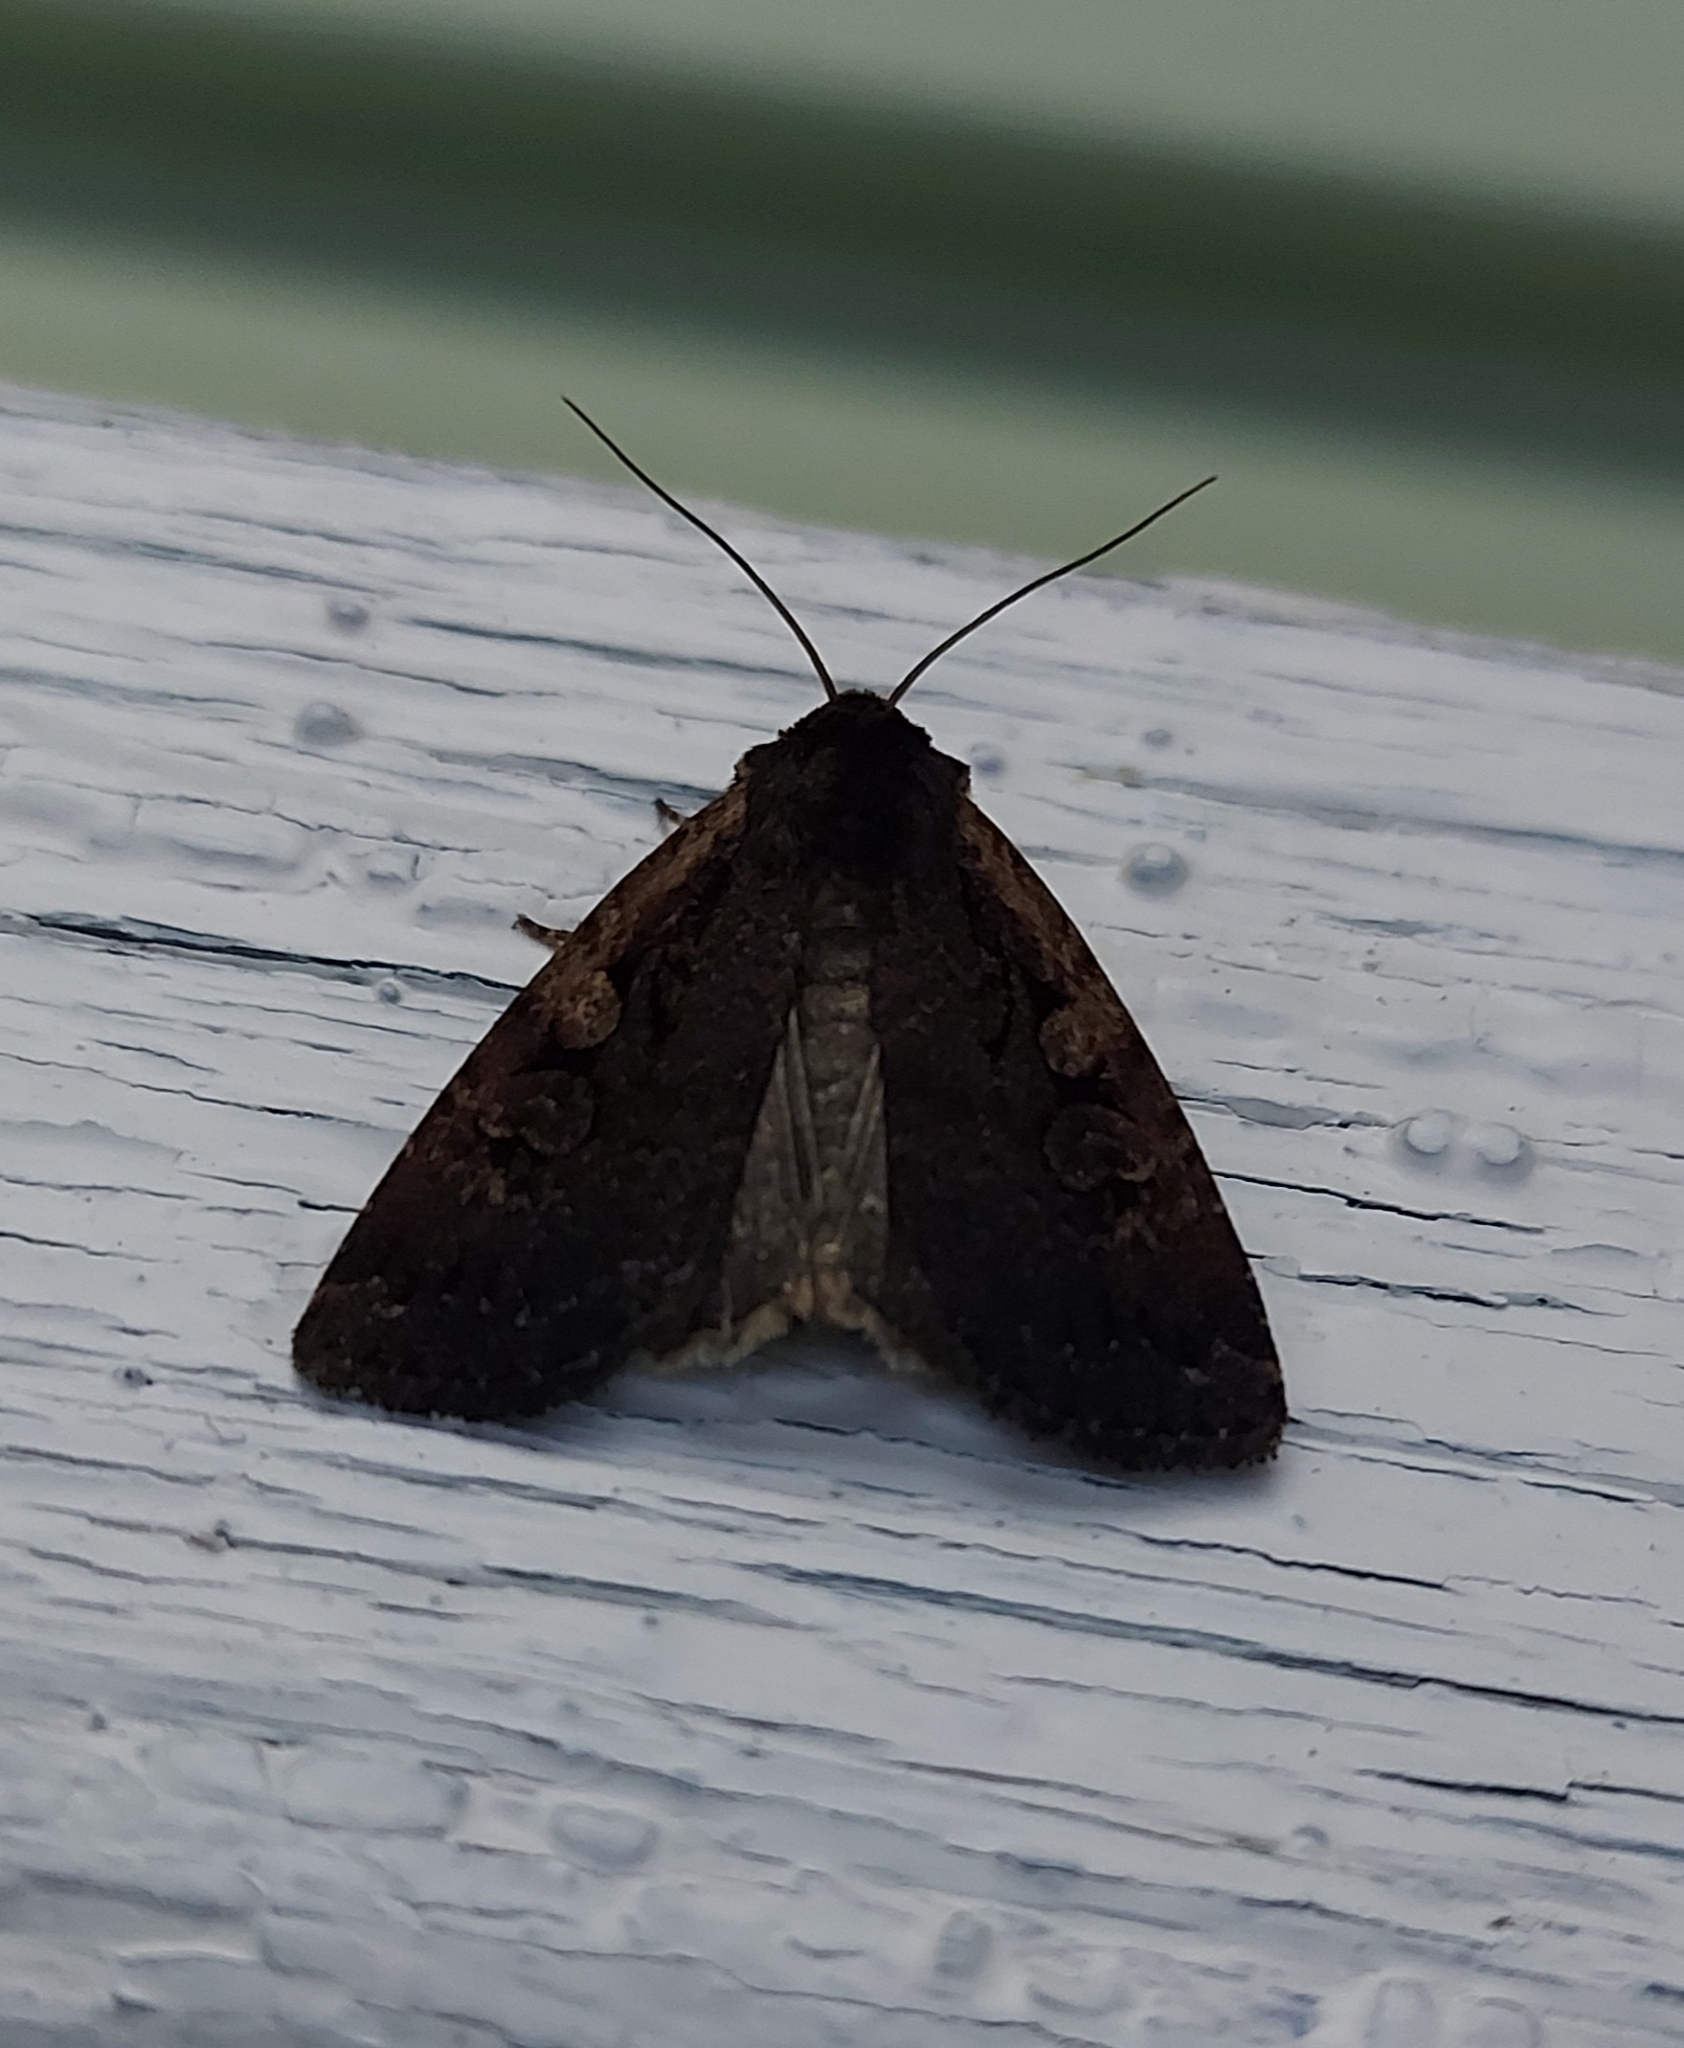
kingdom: Animalia
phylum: Arthropoda
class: Insecta
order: Lepidoptera
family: Noctuidae
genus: Eugraphe
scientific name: Eugraphe sigma
